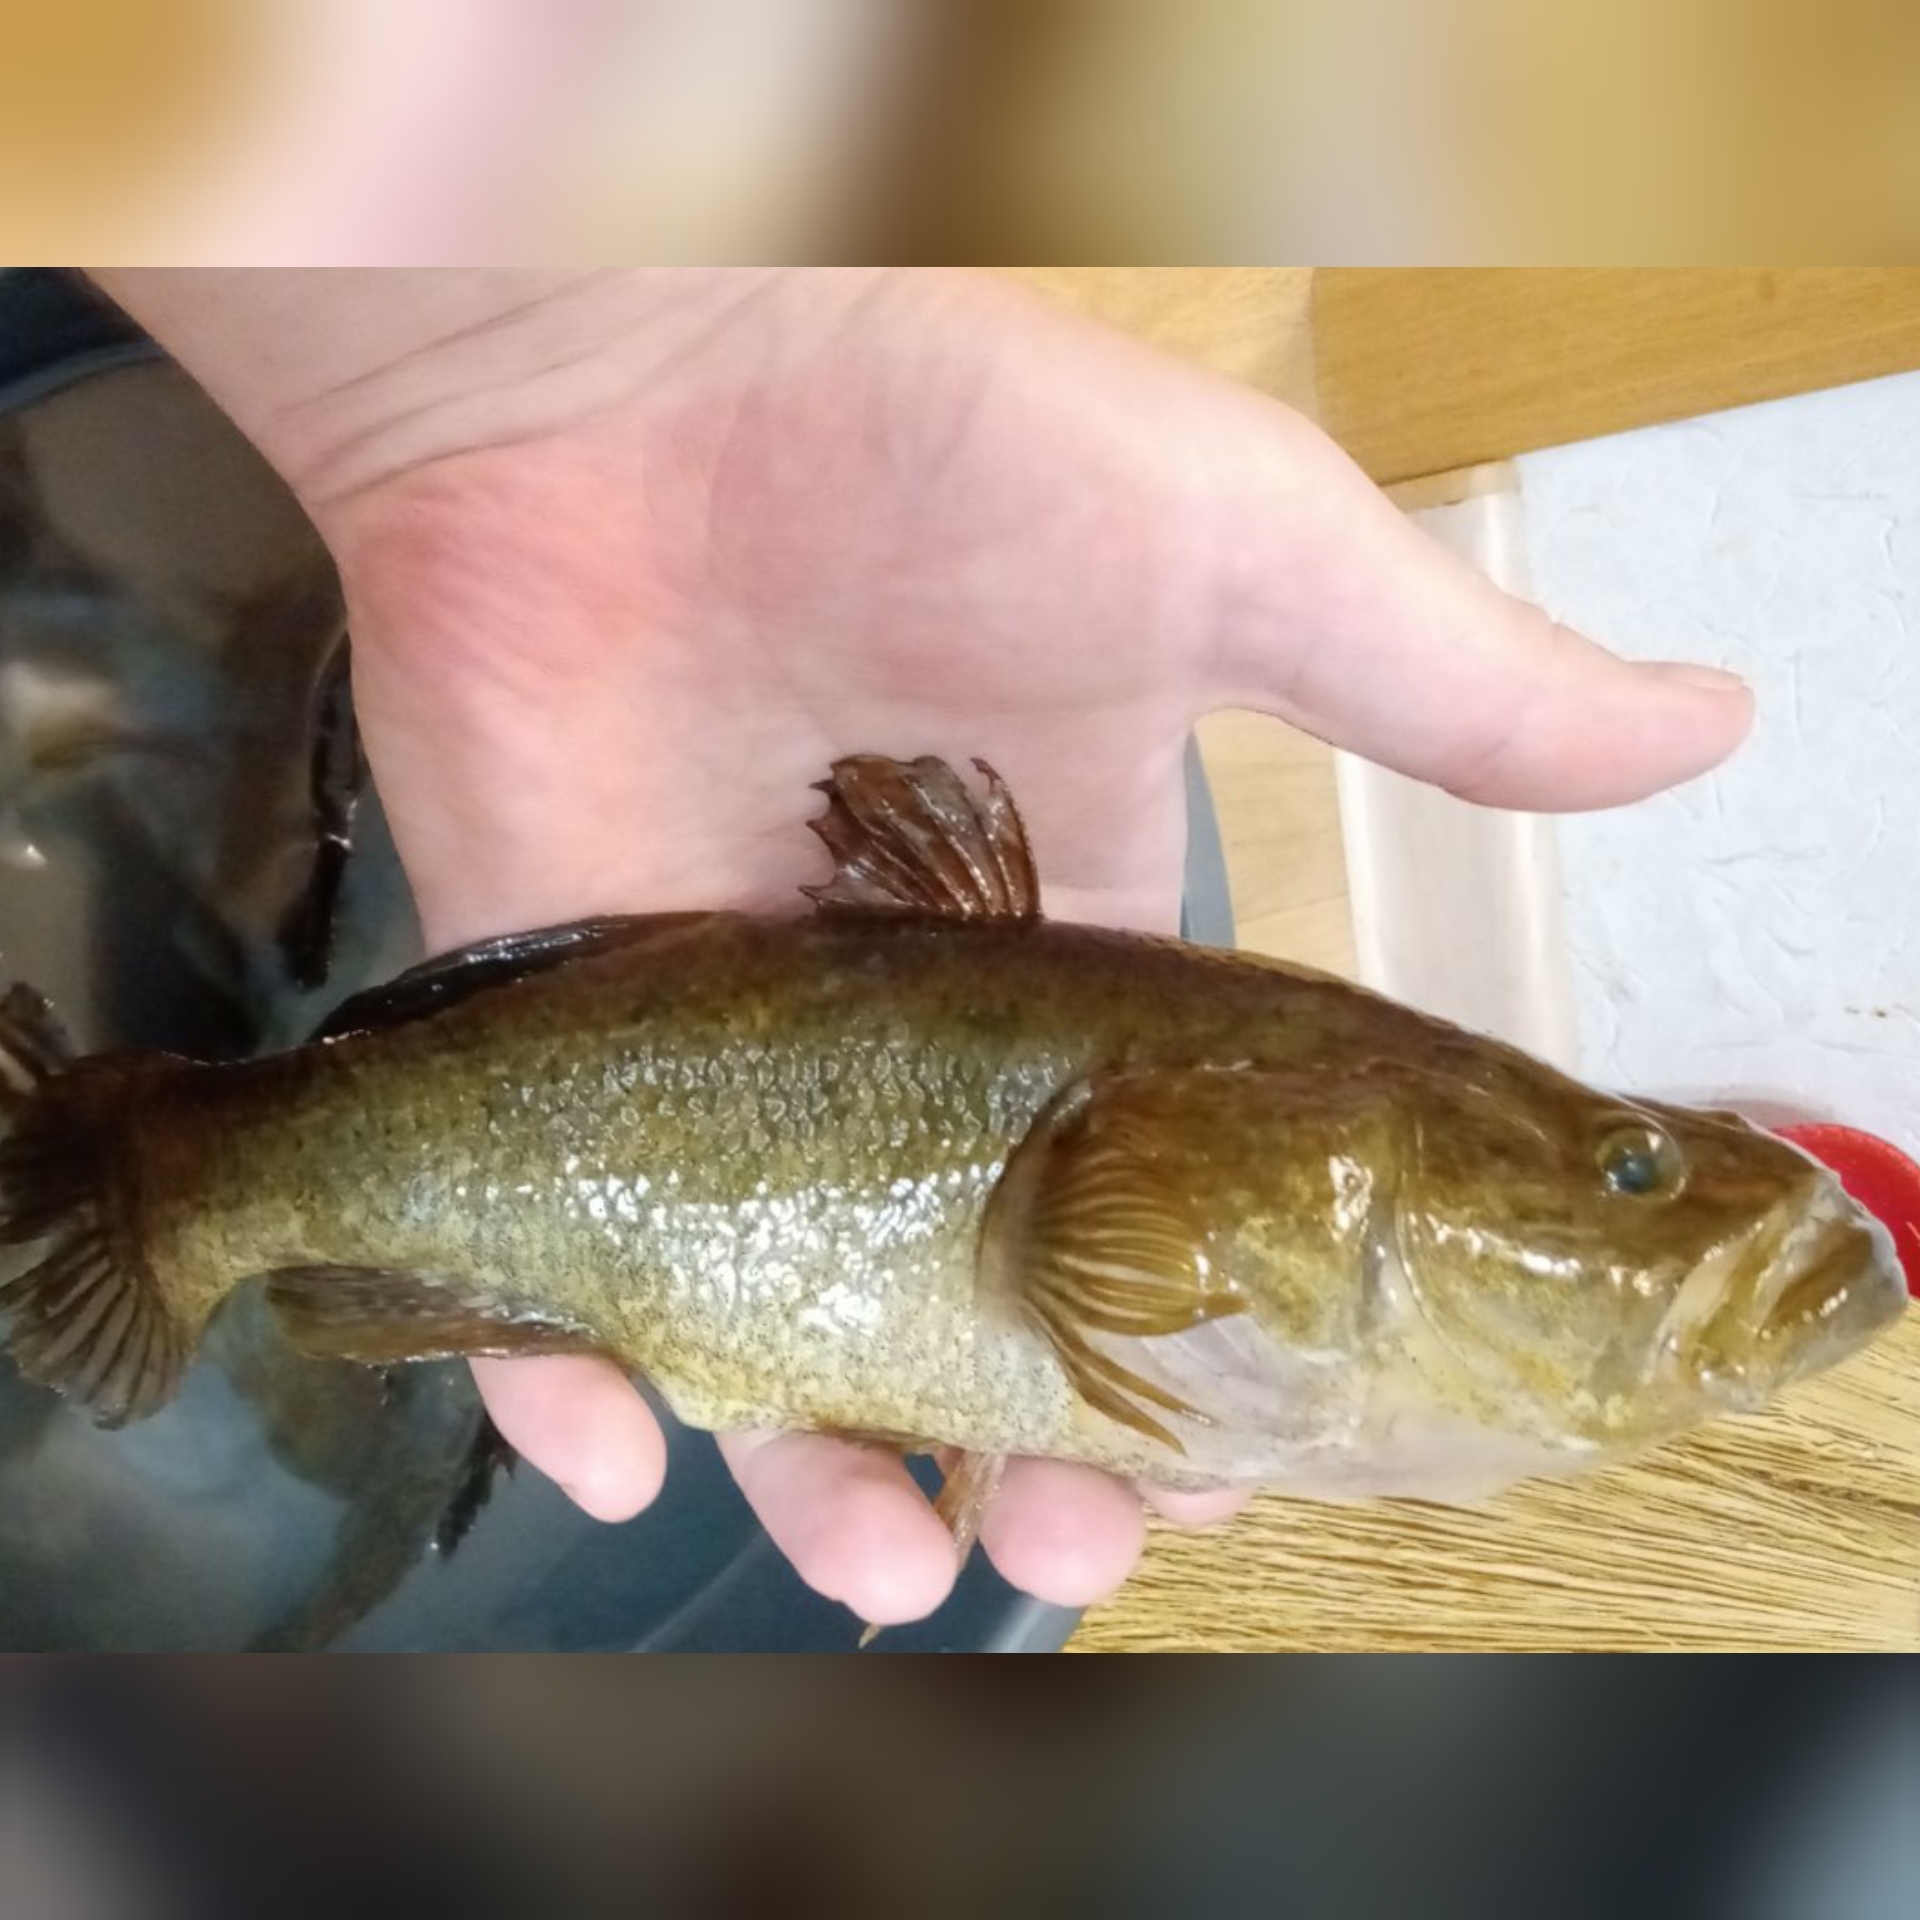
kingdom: Animalia
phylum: Chordata
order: Perciformes
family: Odontobutidae
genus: Perccottus
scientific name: Perccottus glenii
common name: Amur sleeper
